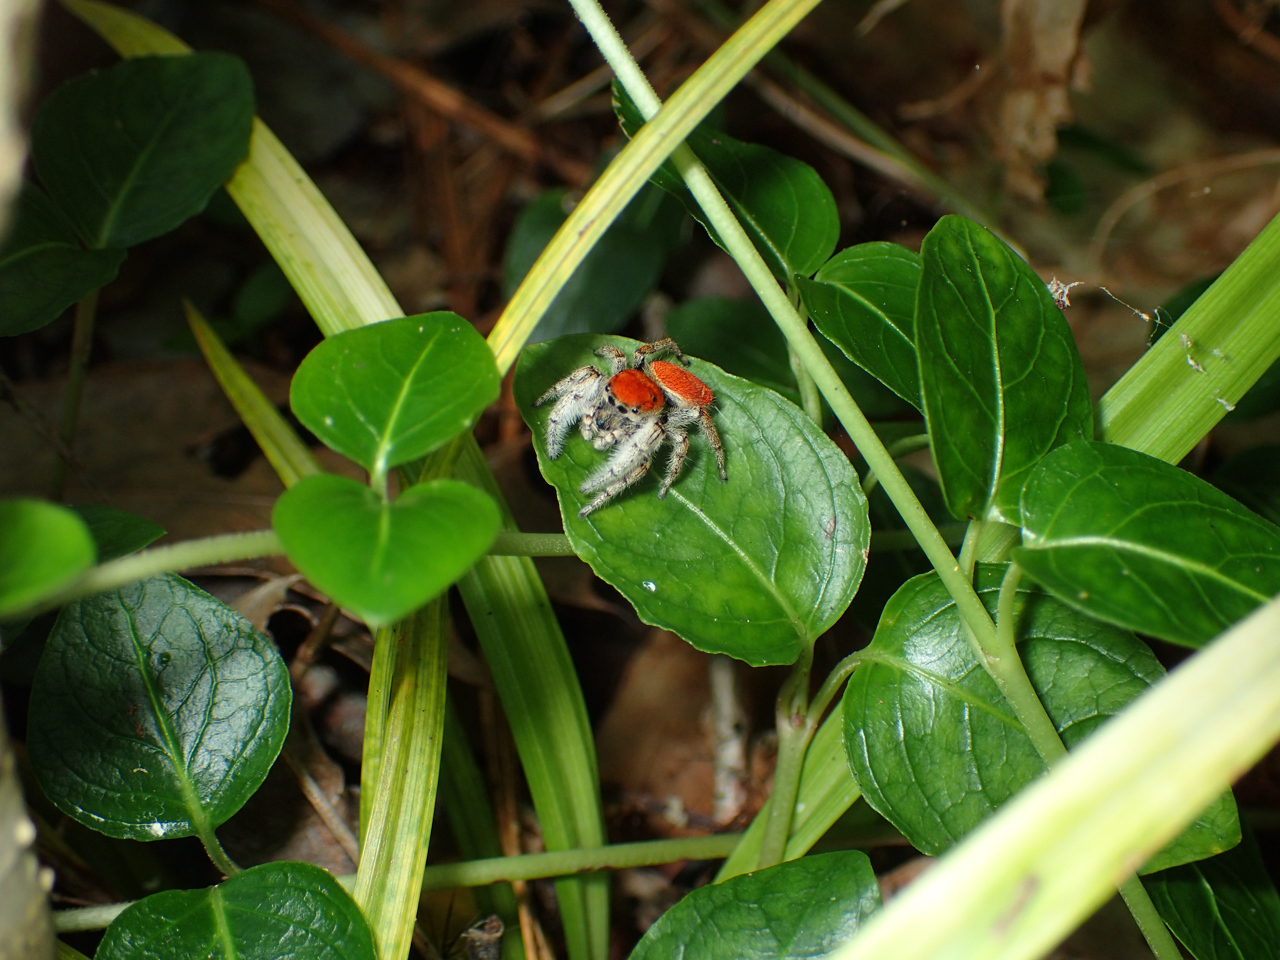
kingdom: Animalia
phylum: Arthropoda
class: Arachnida
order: Araneae
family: Salticidae
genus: Phidippus
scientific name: Phidippus whitmani
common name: Whitman's jumping spider
